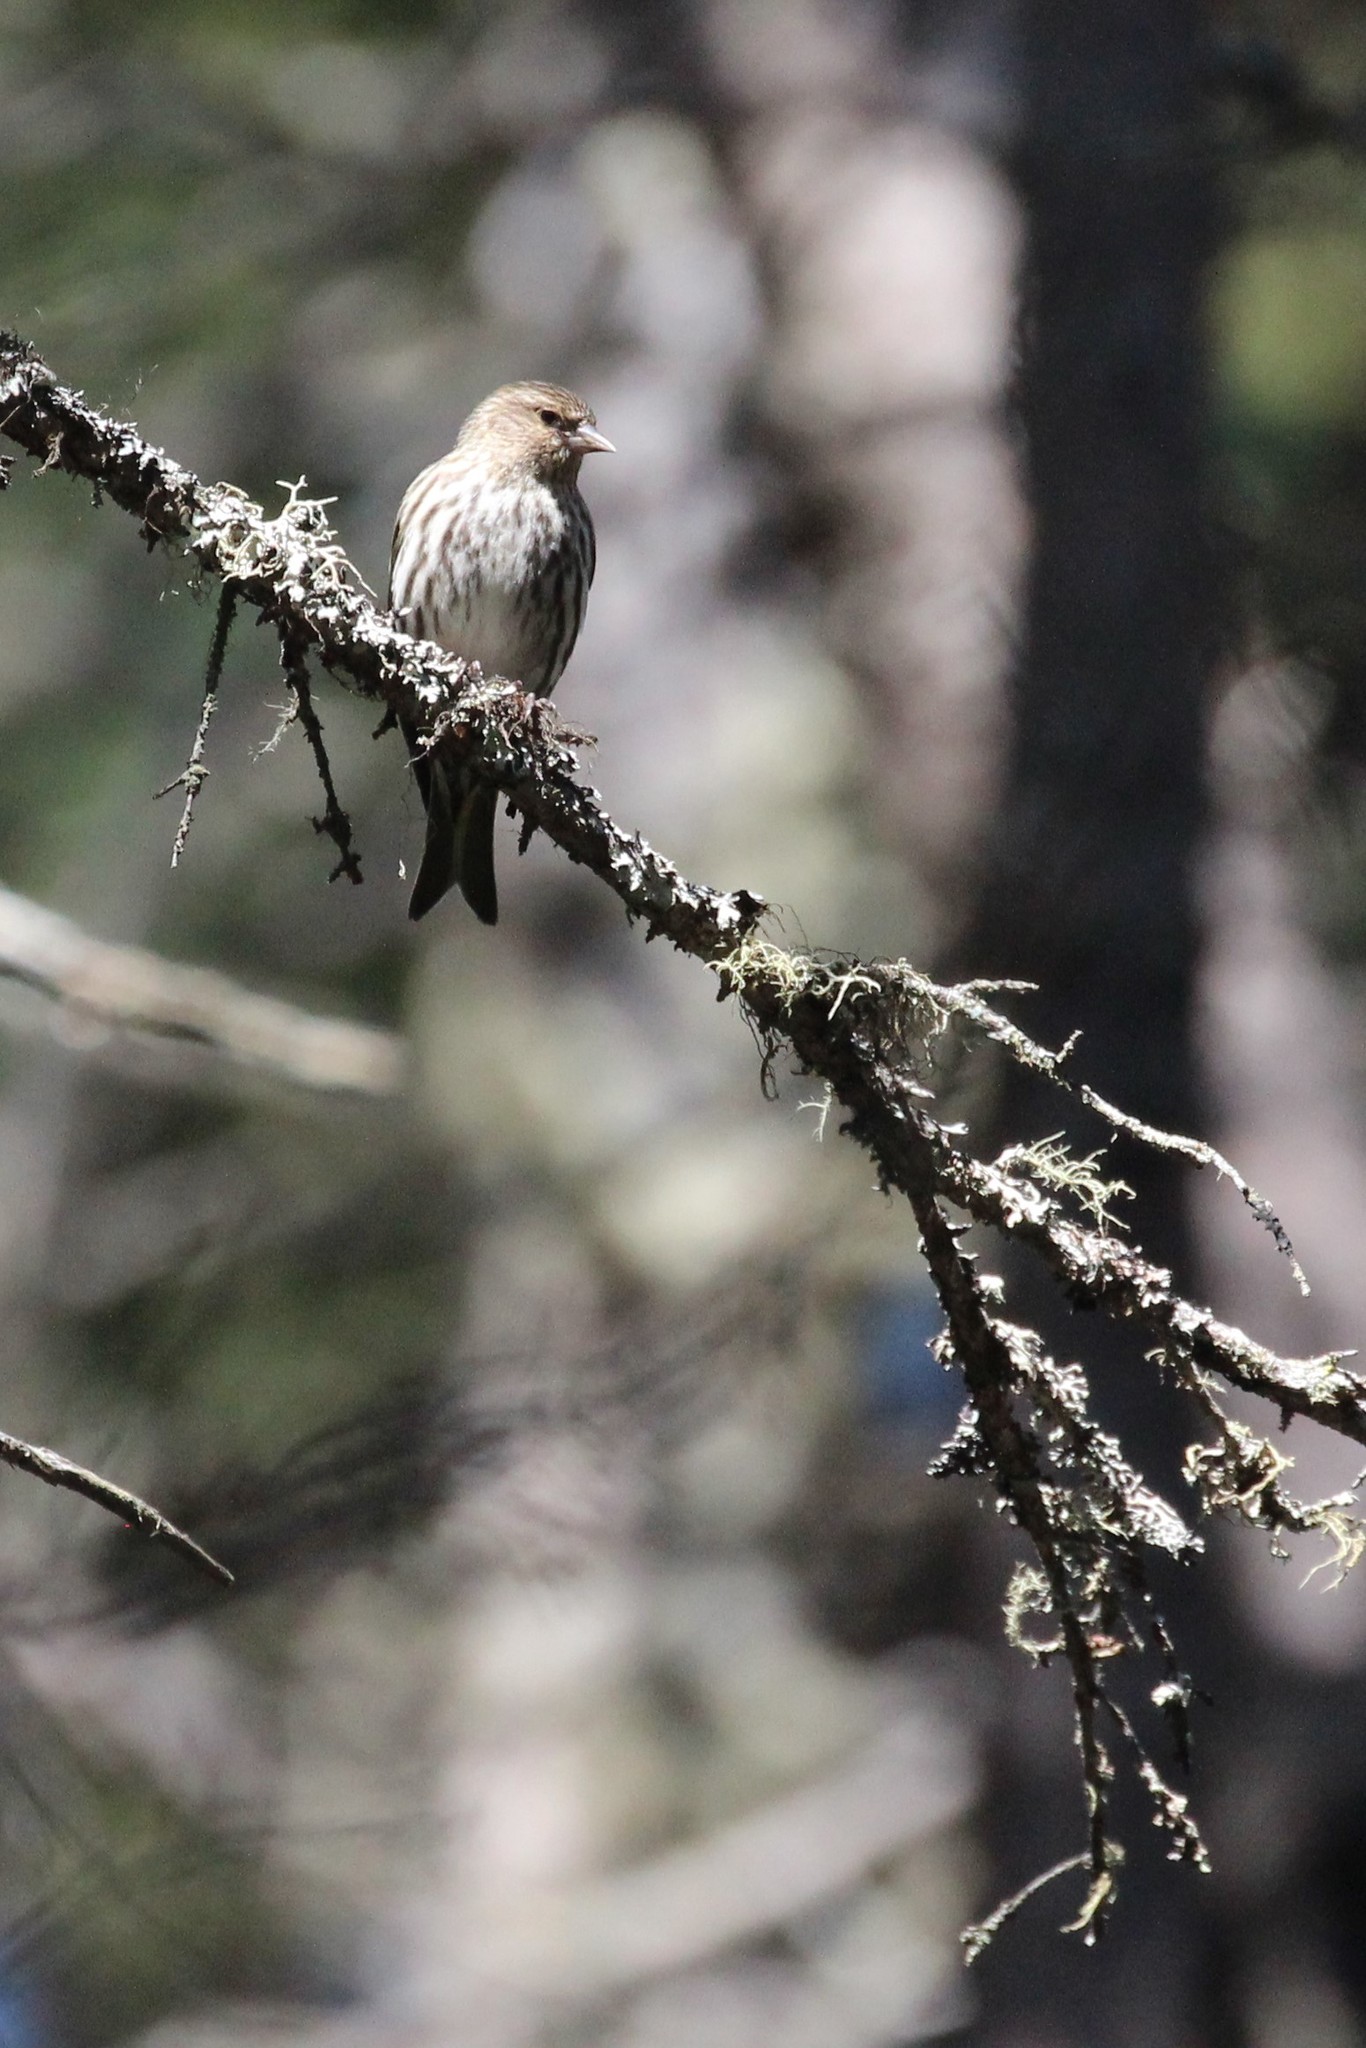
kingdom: Animalia
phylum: Chordata
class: Aves
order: Passeriformes
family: Fringillidae
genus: Spinus
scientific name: Spinus pinus
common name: Pine siskin
